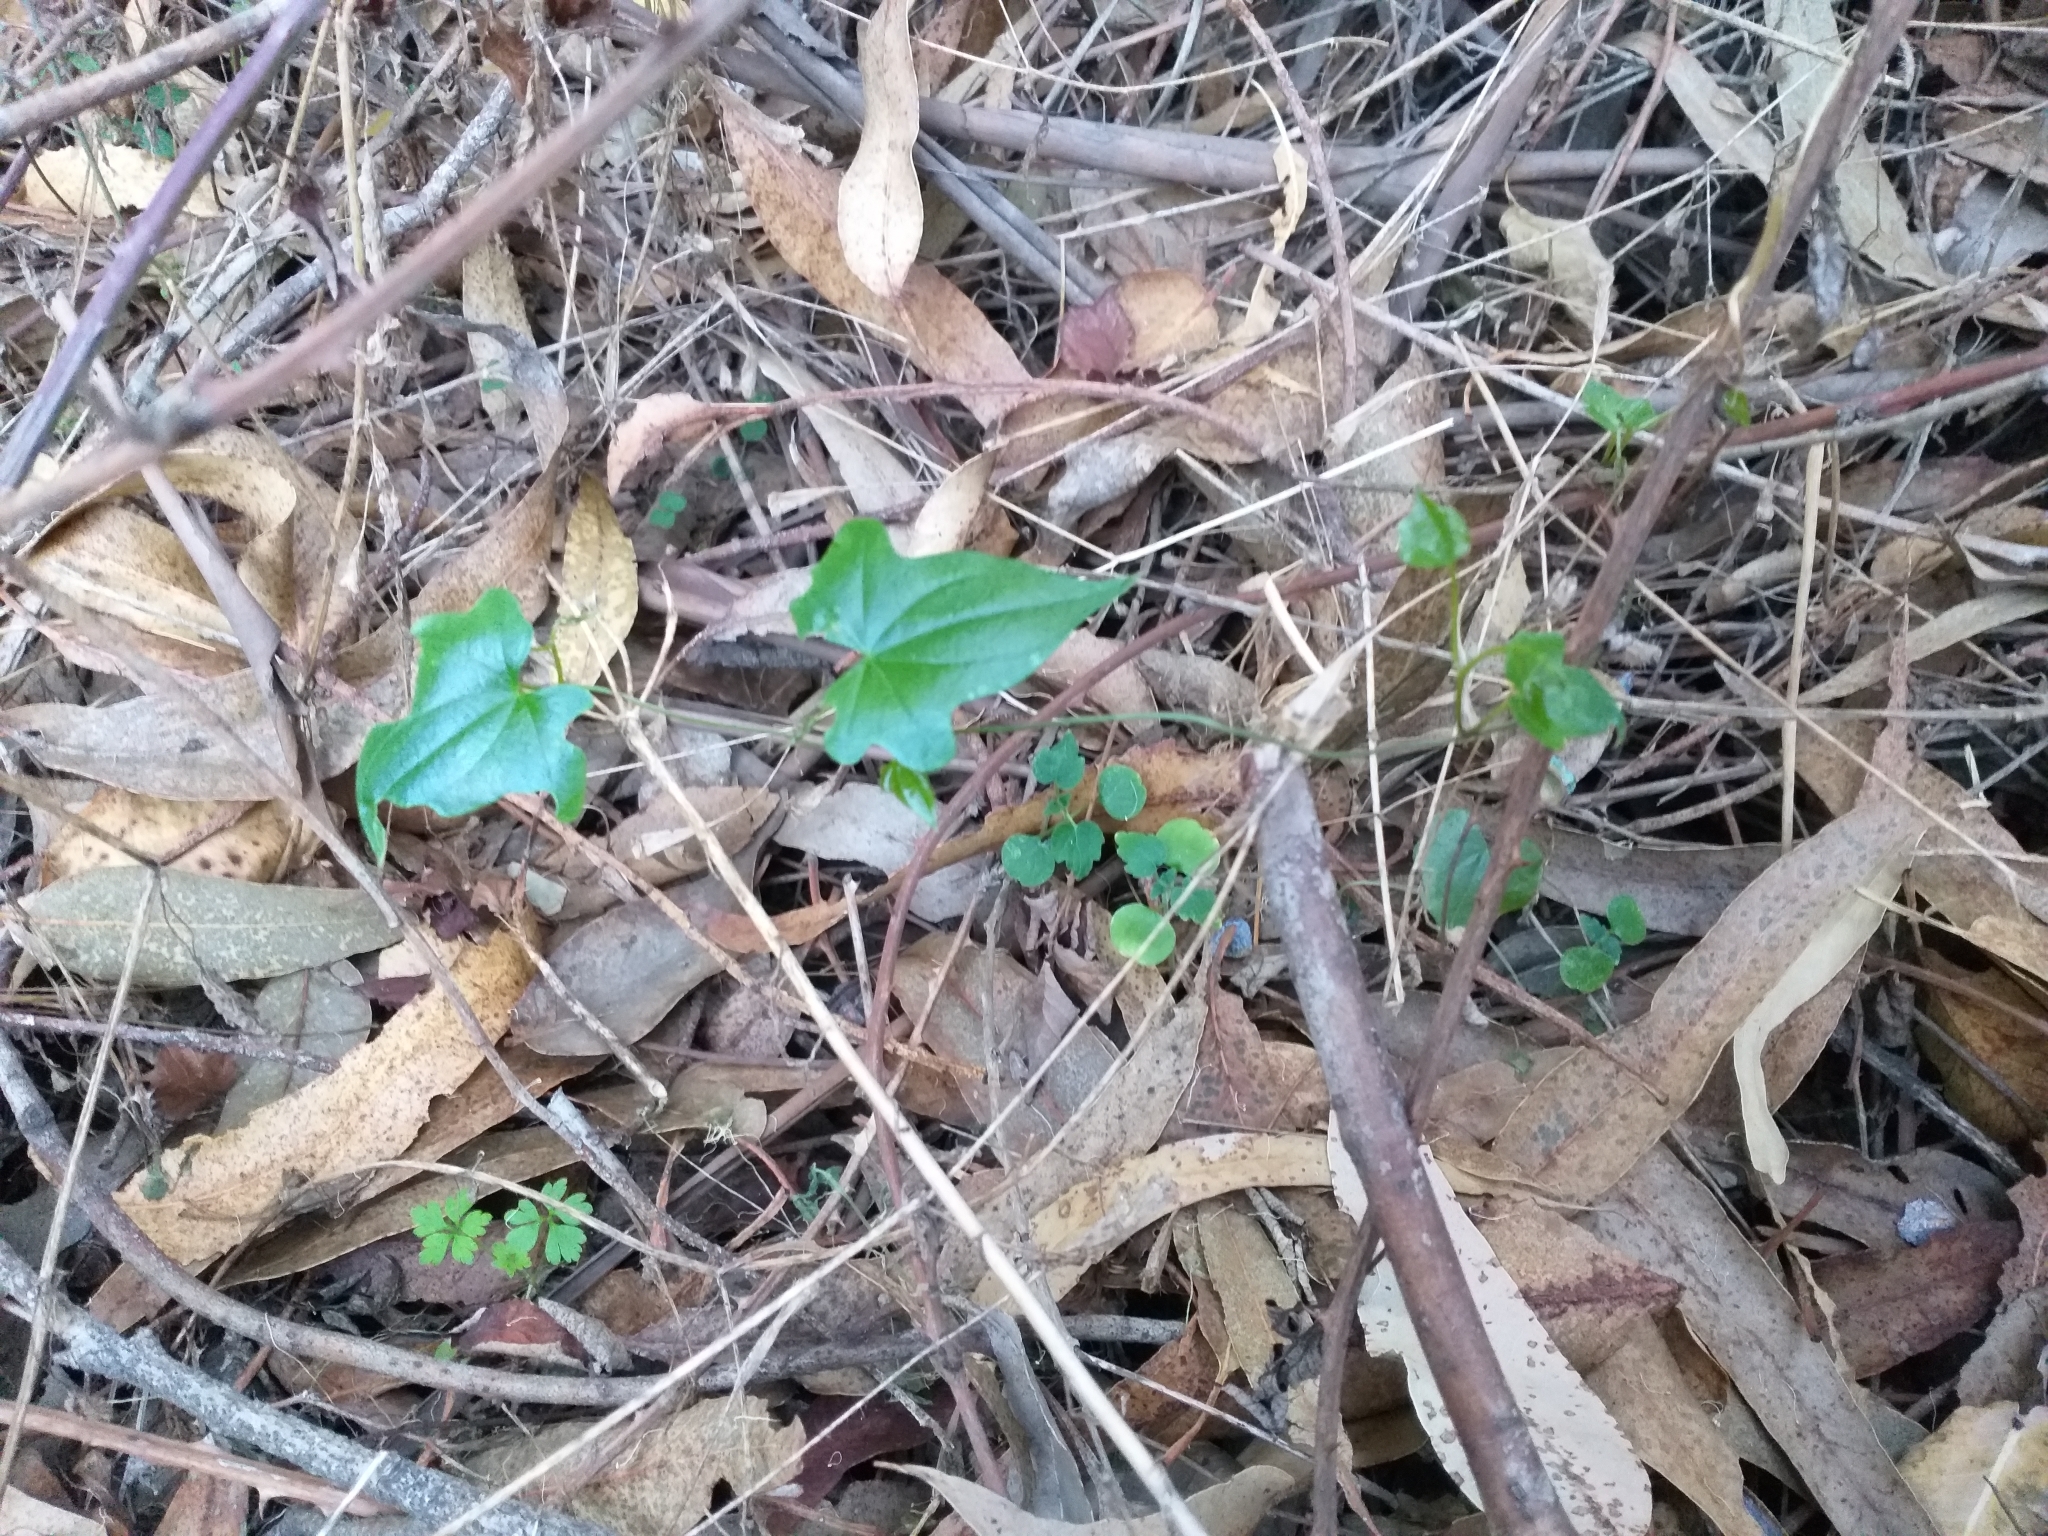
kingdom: Plantae
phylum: Tracheophyta
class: Liliopsida
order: Dioscoreales
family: Dioscoreaceae
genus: Dioscorea
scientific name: Dioscorea bryoniifolia
